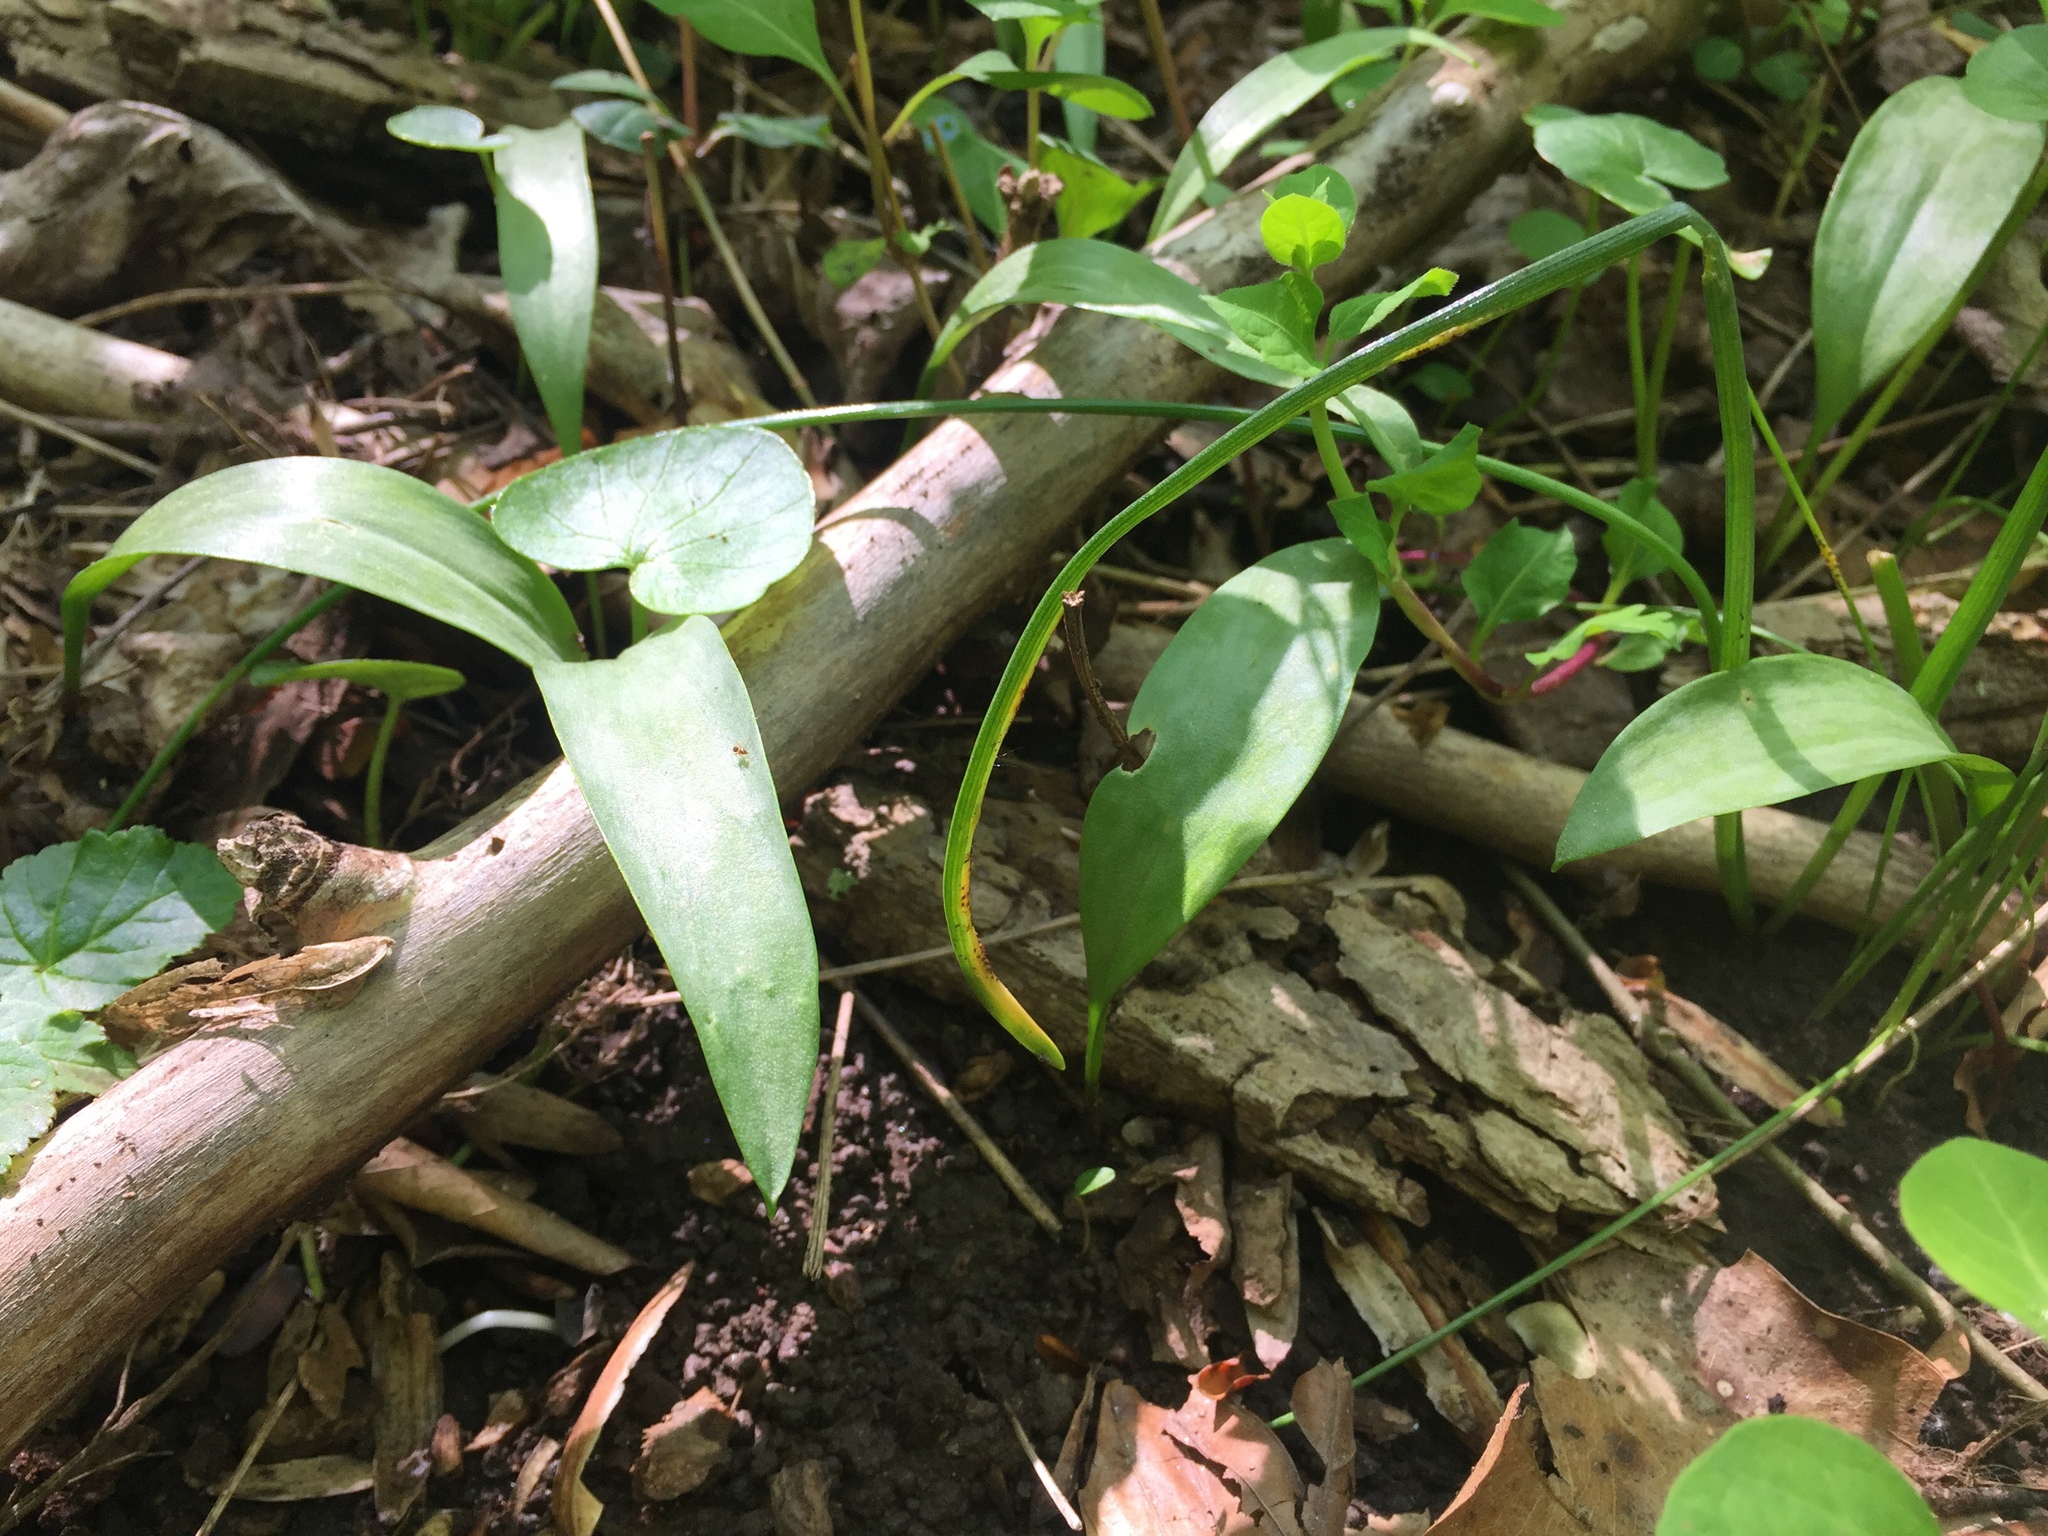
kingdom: Plantae
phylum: Tracheophyta
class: Liliopsida
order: Liliales
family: Liliaceae
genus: Erythronium
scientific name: Erythronium americanum
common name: Yellow adder's-tongue
